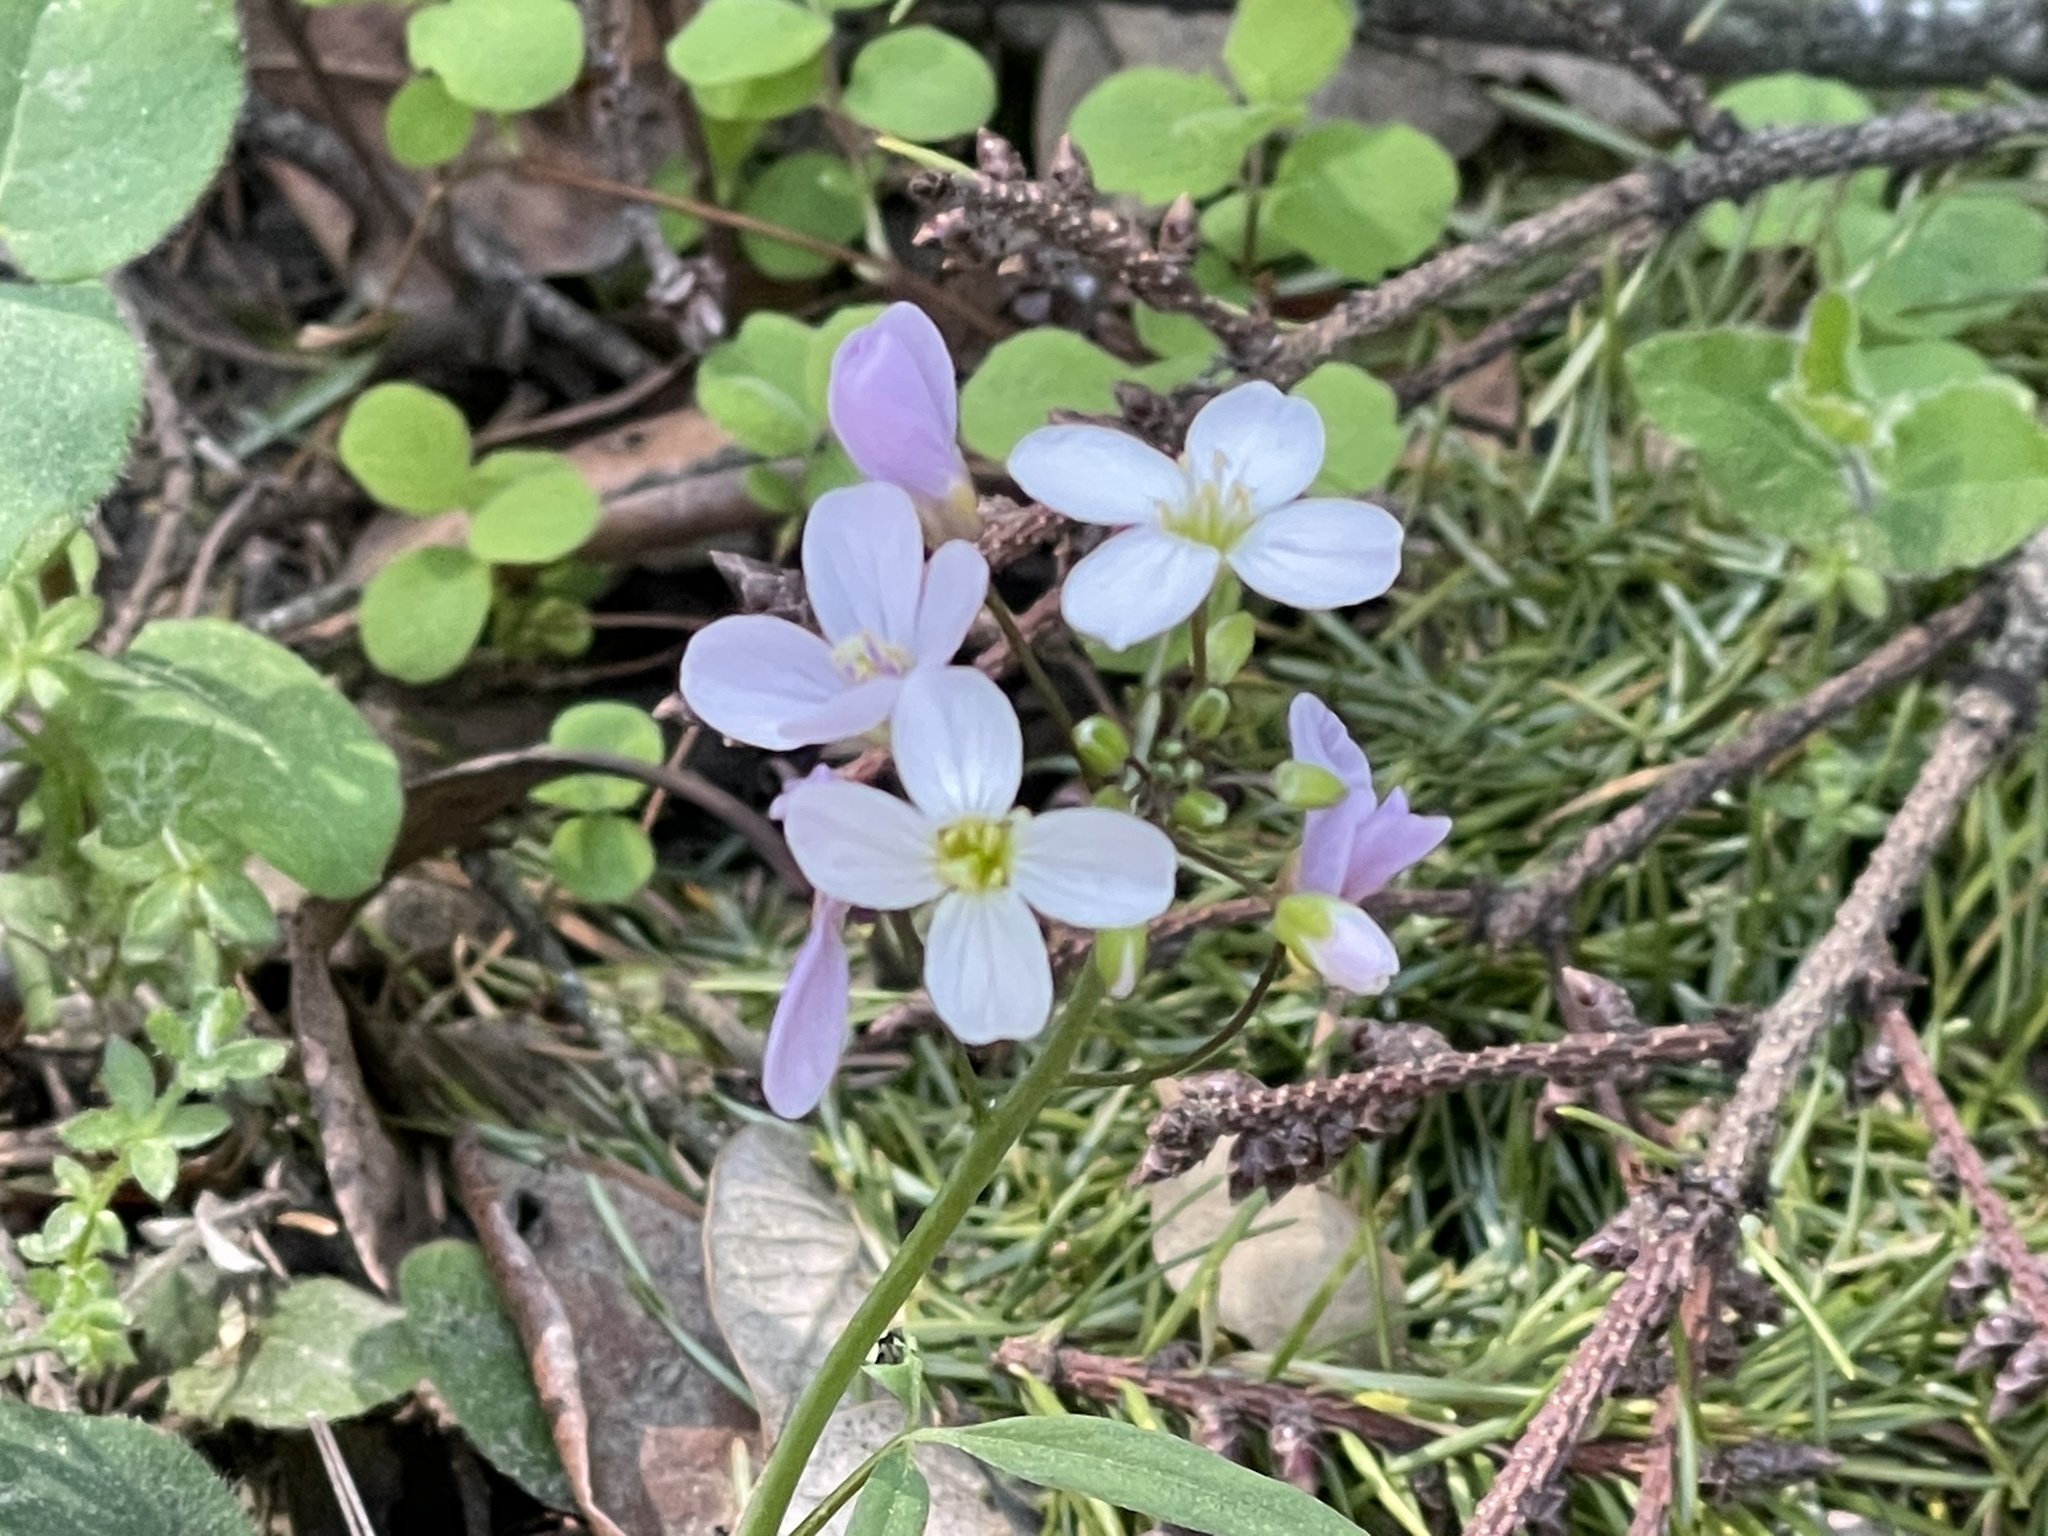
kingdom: Plantae
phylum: Tracheophyta
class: Magnoliopsida
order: Brassicales
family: Brassicaceae
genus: Cardamine
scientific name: Cardamine californica
